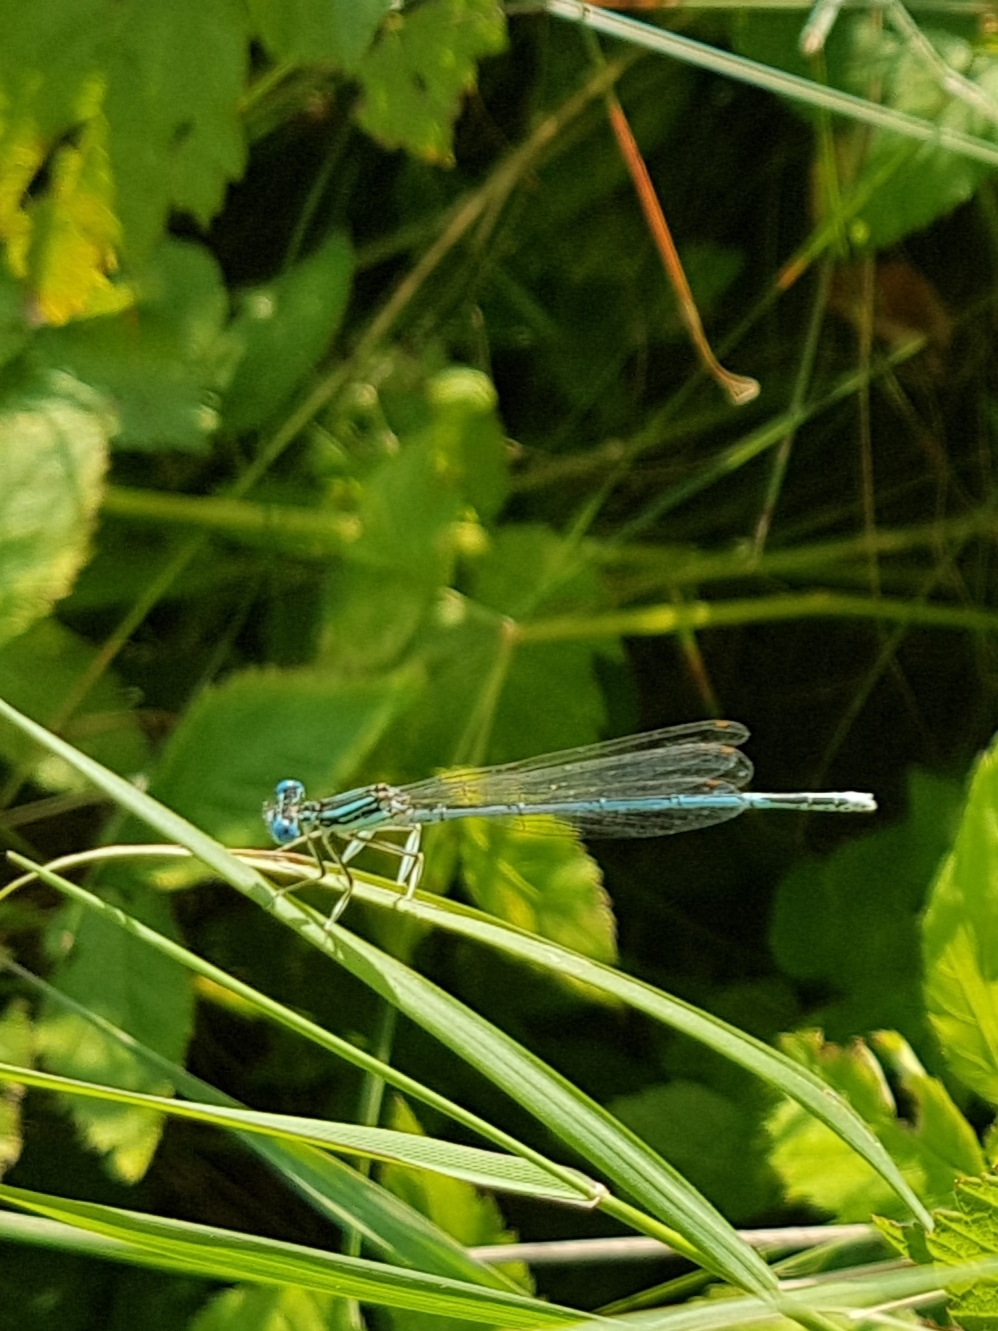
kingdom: Animalia
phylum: Arthropoda
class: Insecta
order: Odonata
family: Platycnemididae
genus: Platycnemis
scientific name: Platycnemis pennipes
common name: White-legged damselfly
